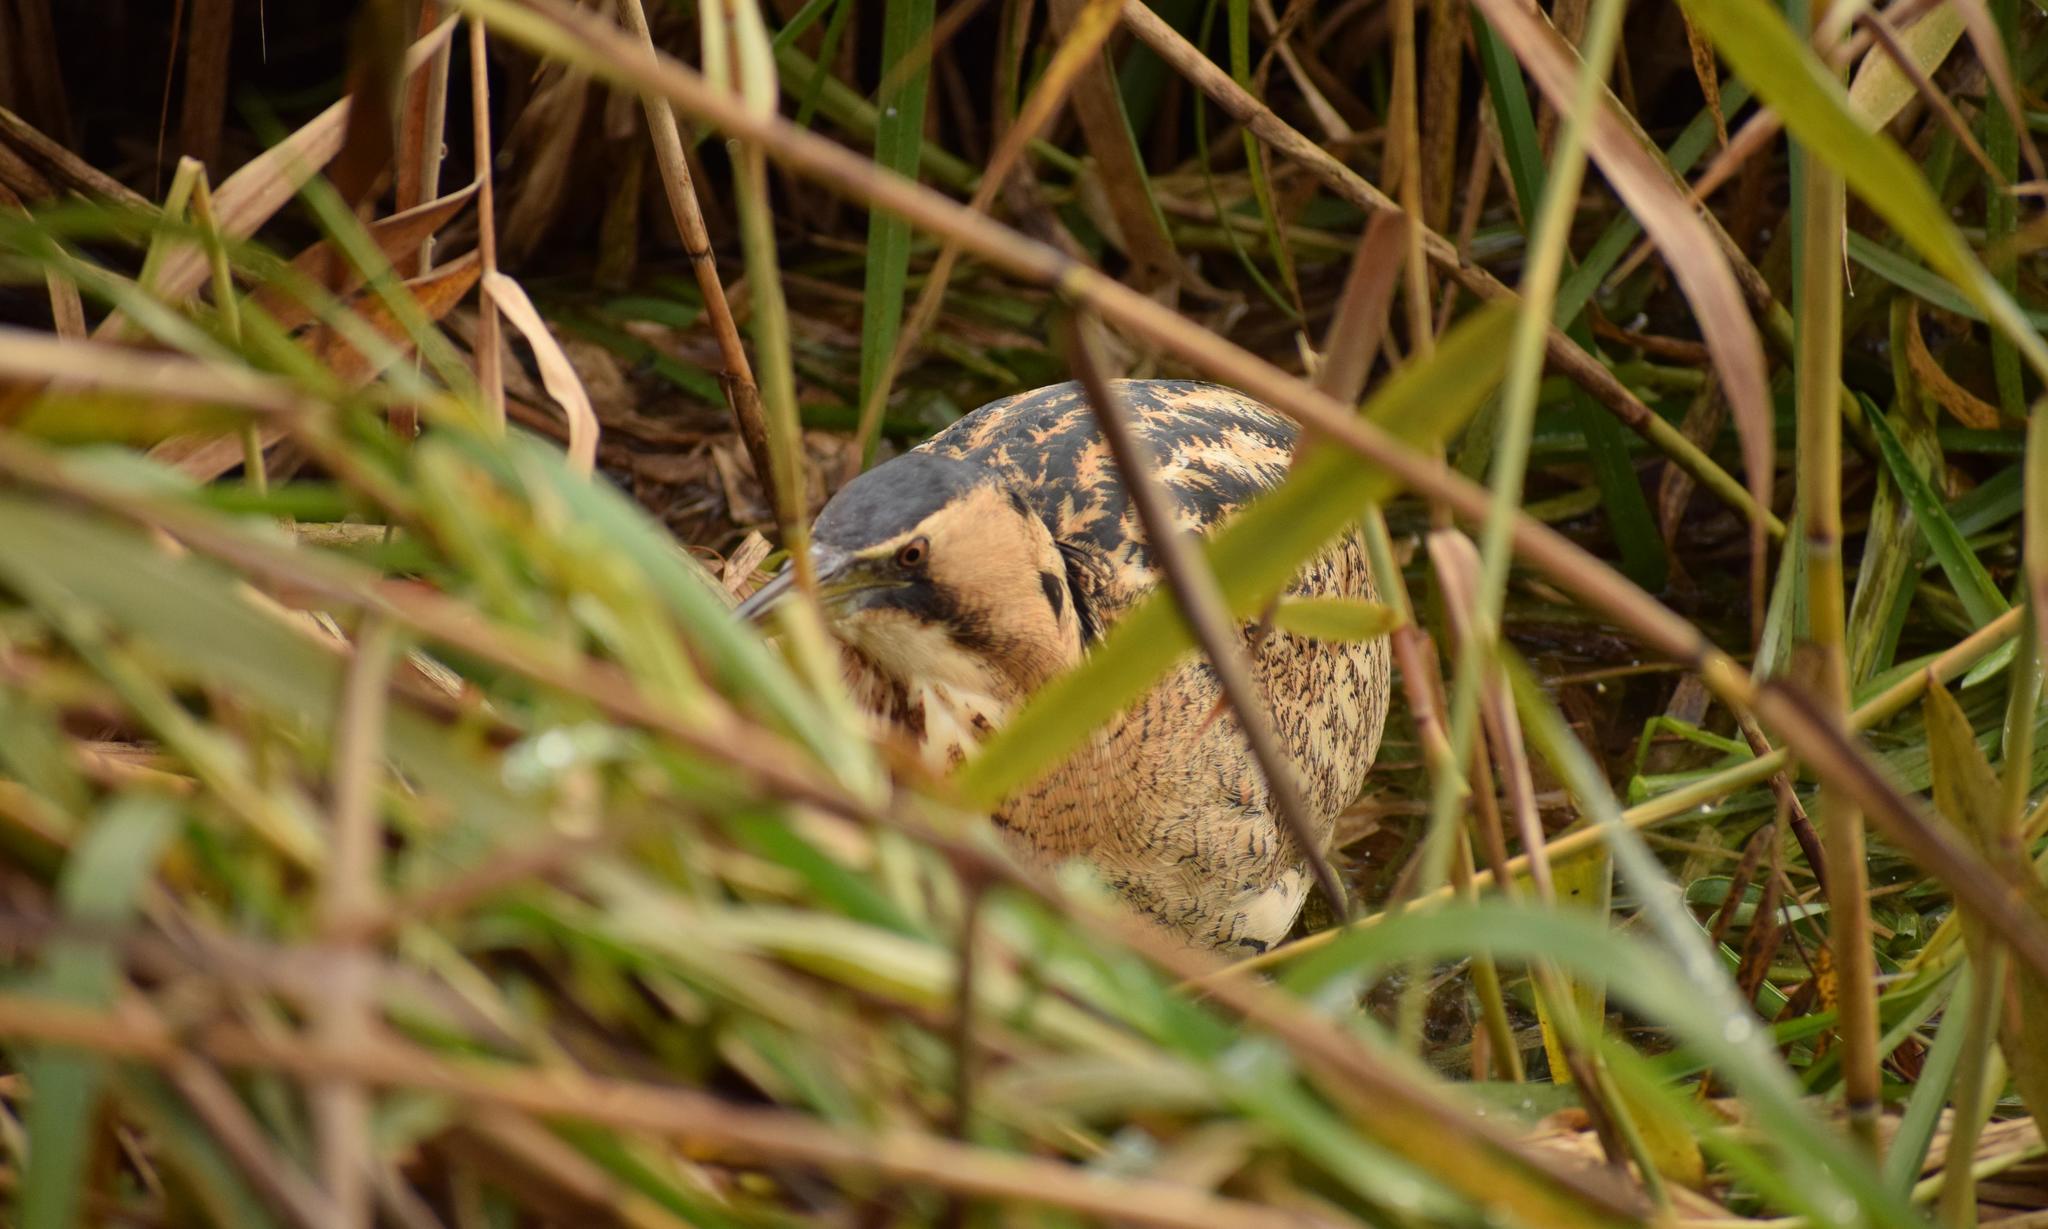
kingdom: Animalia
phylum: Chordata
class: Aves
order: Pelecaniformes
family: Ardeidae
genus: Botaurus
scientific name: Botaurus stellaris
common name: Eurasian bittern
